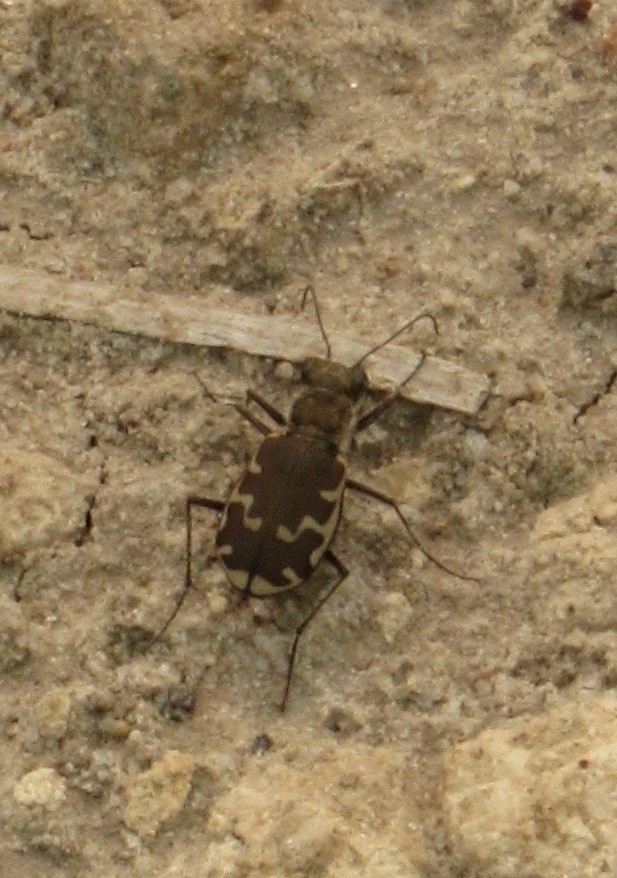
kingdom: Animalia
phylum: Arthropoda
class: Insecta
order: Coleoptera
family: Carabidae
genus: Cicindela
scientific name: Cicindela repanda
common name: Bronzed tiger beetle
